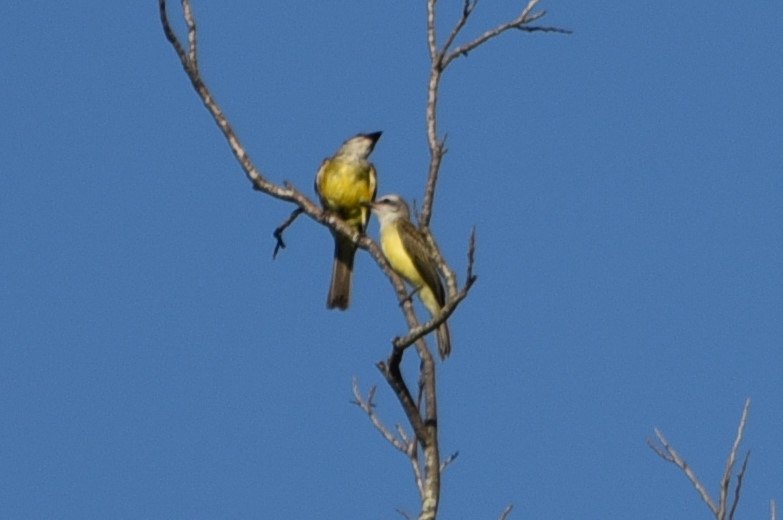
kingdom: Animalia
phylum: Chordata
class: Aves
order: Passeriformes
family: Tyrannidae
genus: Tyrannus
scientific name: Tyrannus verticalis
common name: Western kingbird
